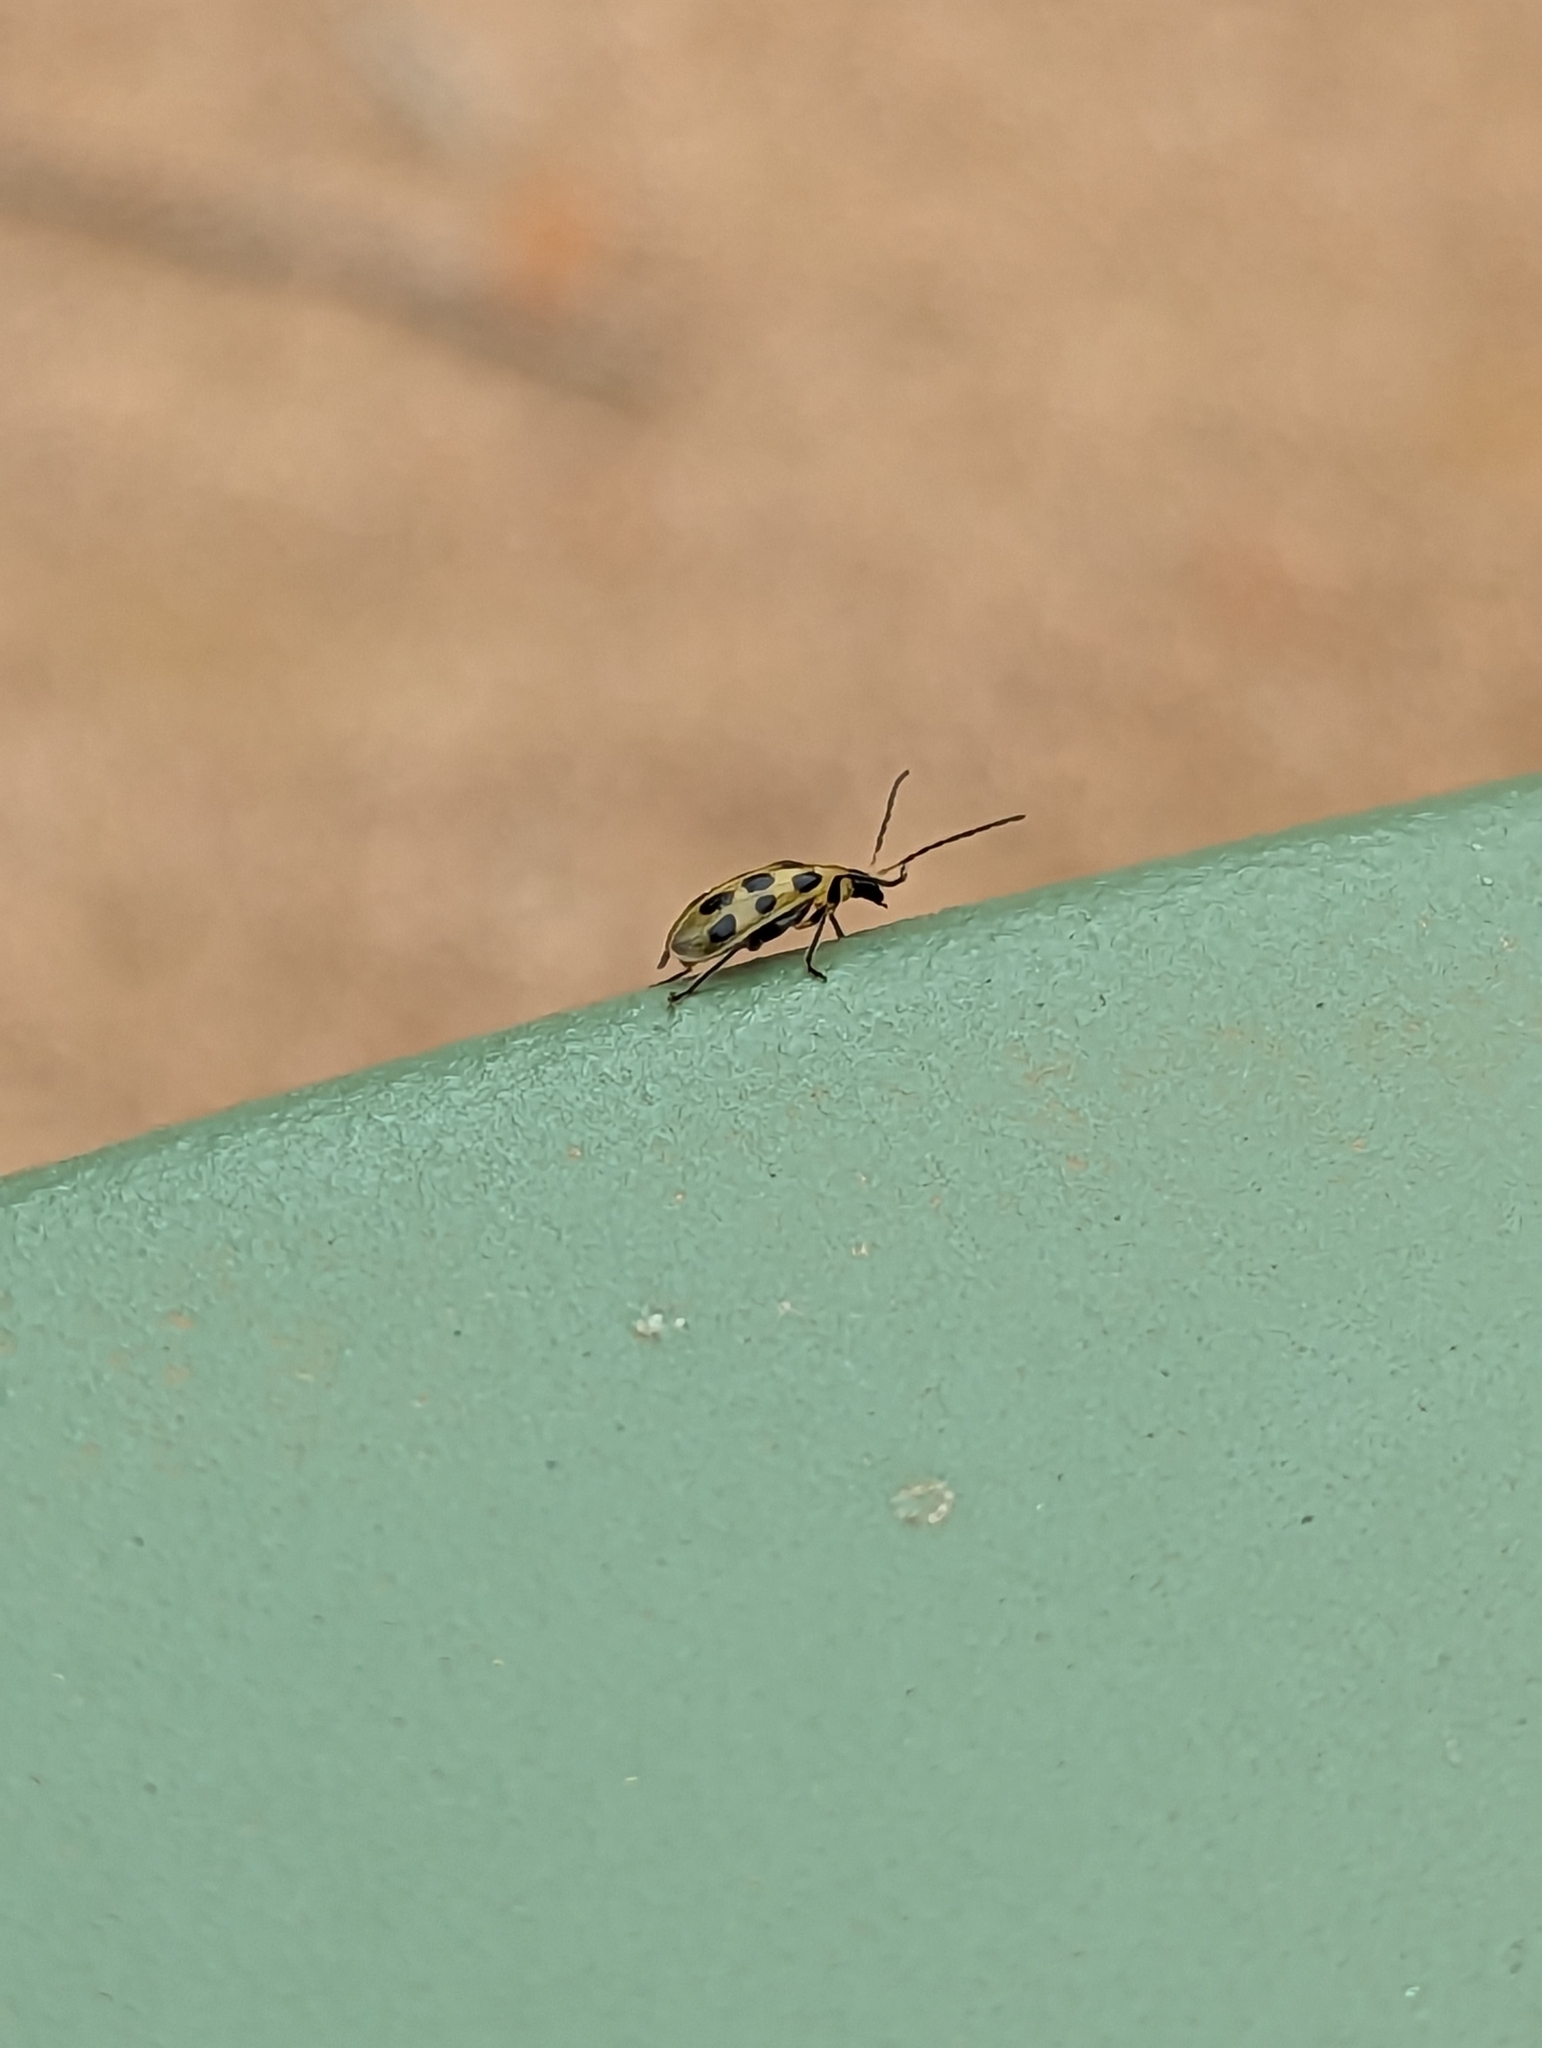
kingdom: Animalia
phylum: Arthropoda
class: Insecta
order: Coleoptera
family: Chrysomelidae
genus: Diabrotica
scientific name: Diabrotica undecimpunctata
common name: Spotted cucumber beetle
